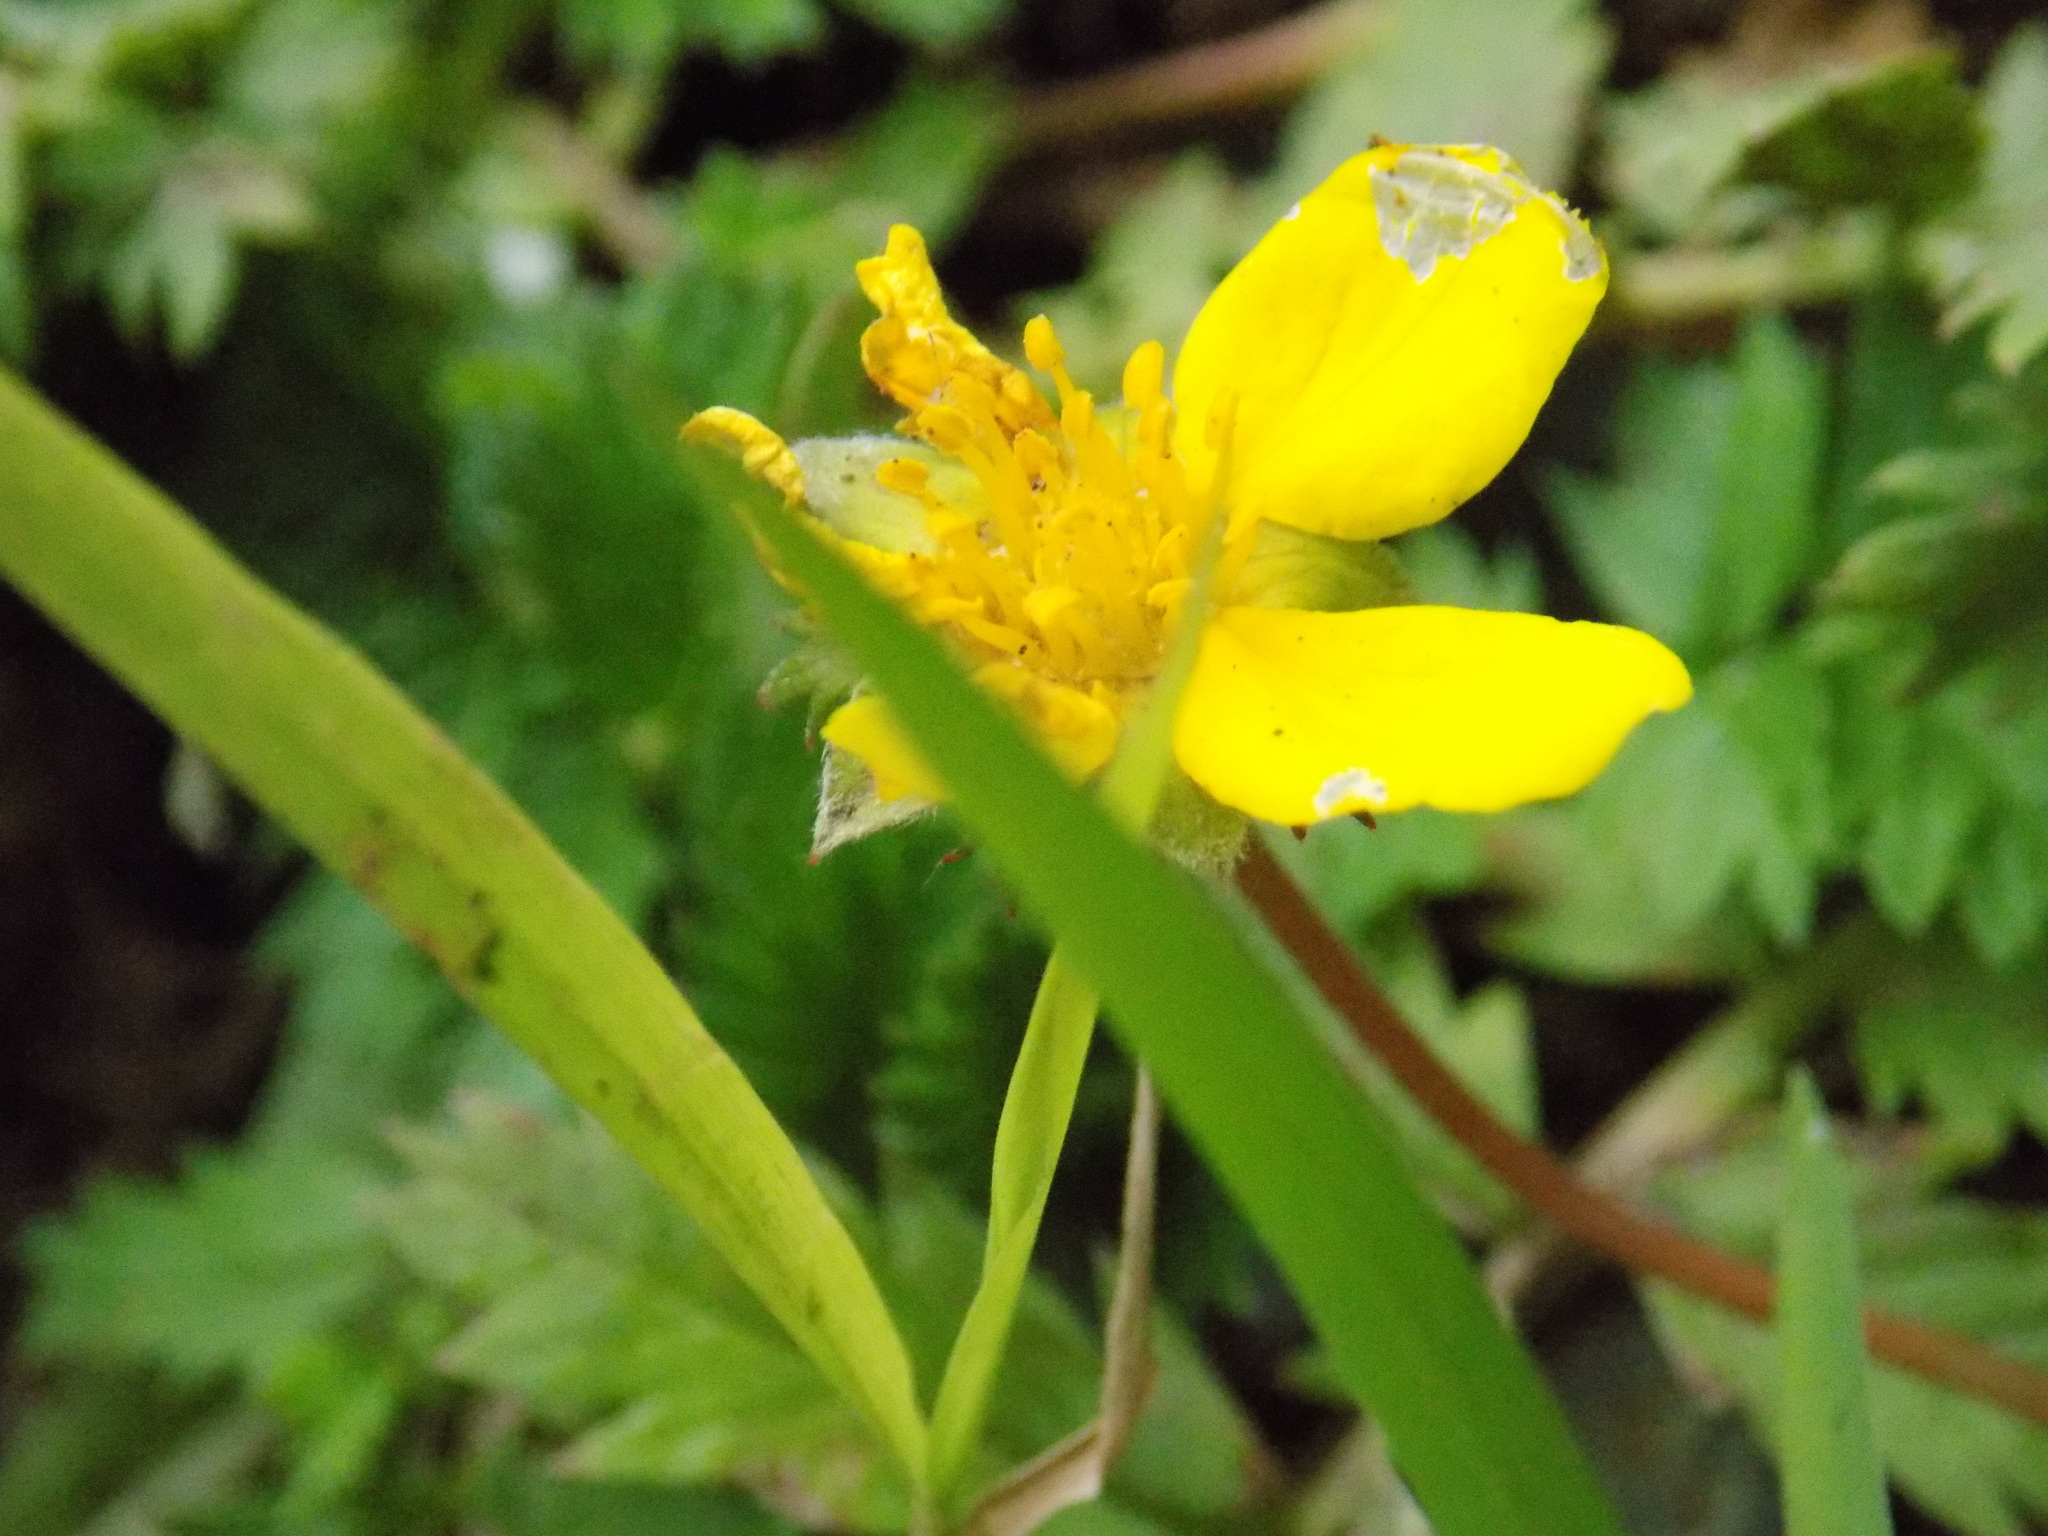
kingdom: Plantae
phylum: Tracheophyta
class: Magnoliopsida
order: Rosales
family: Rosaceae
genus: Argentina
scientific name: Argentina anserina
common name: Common silverweed
